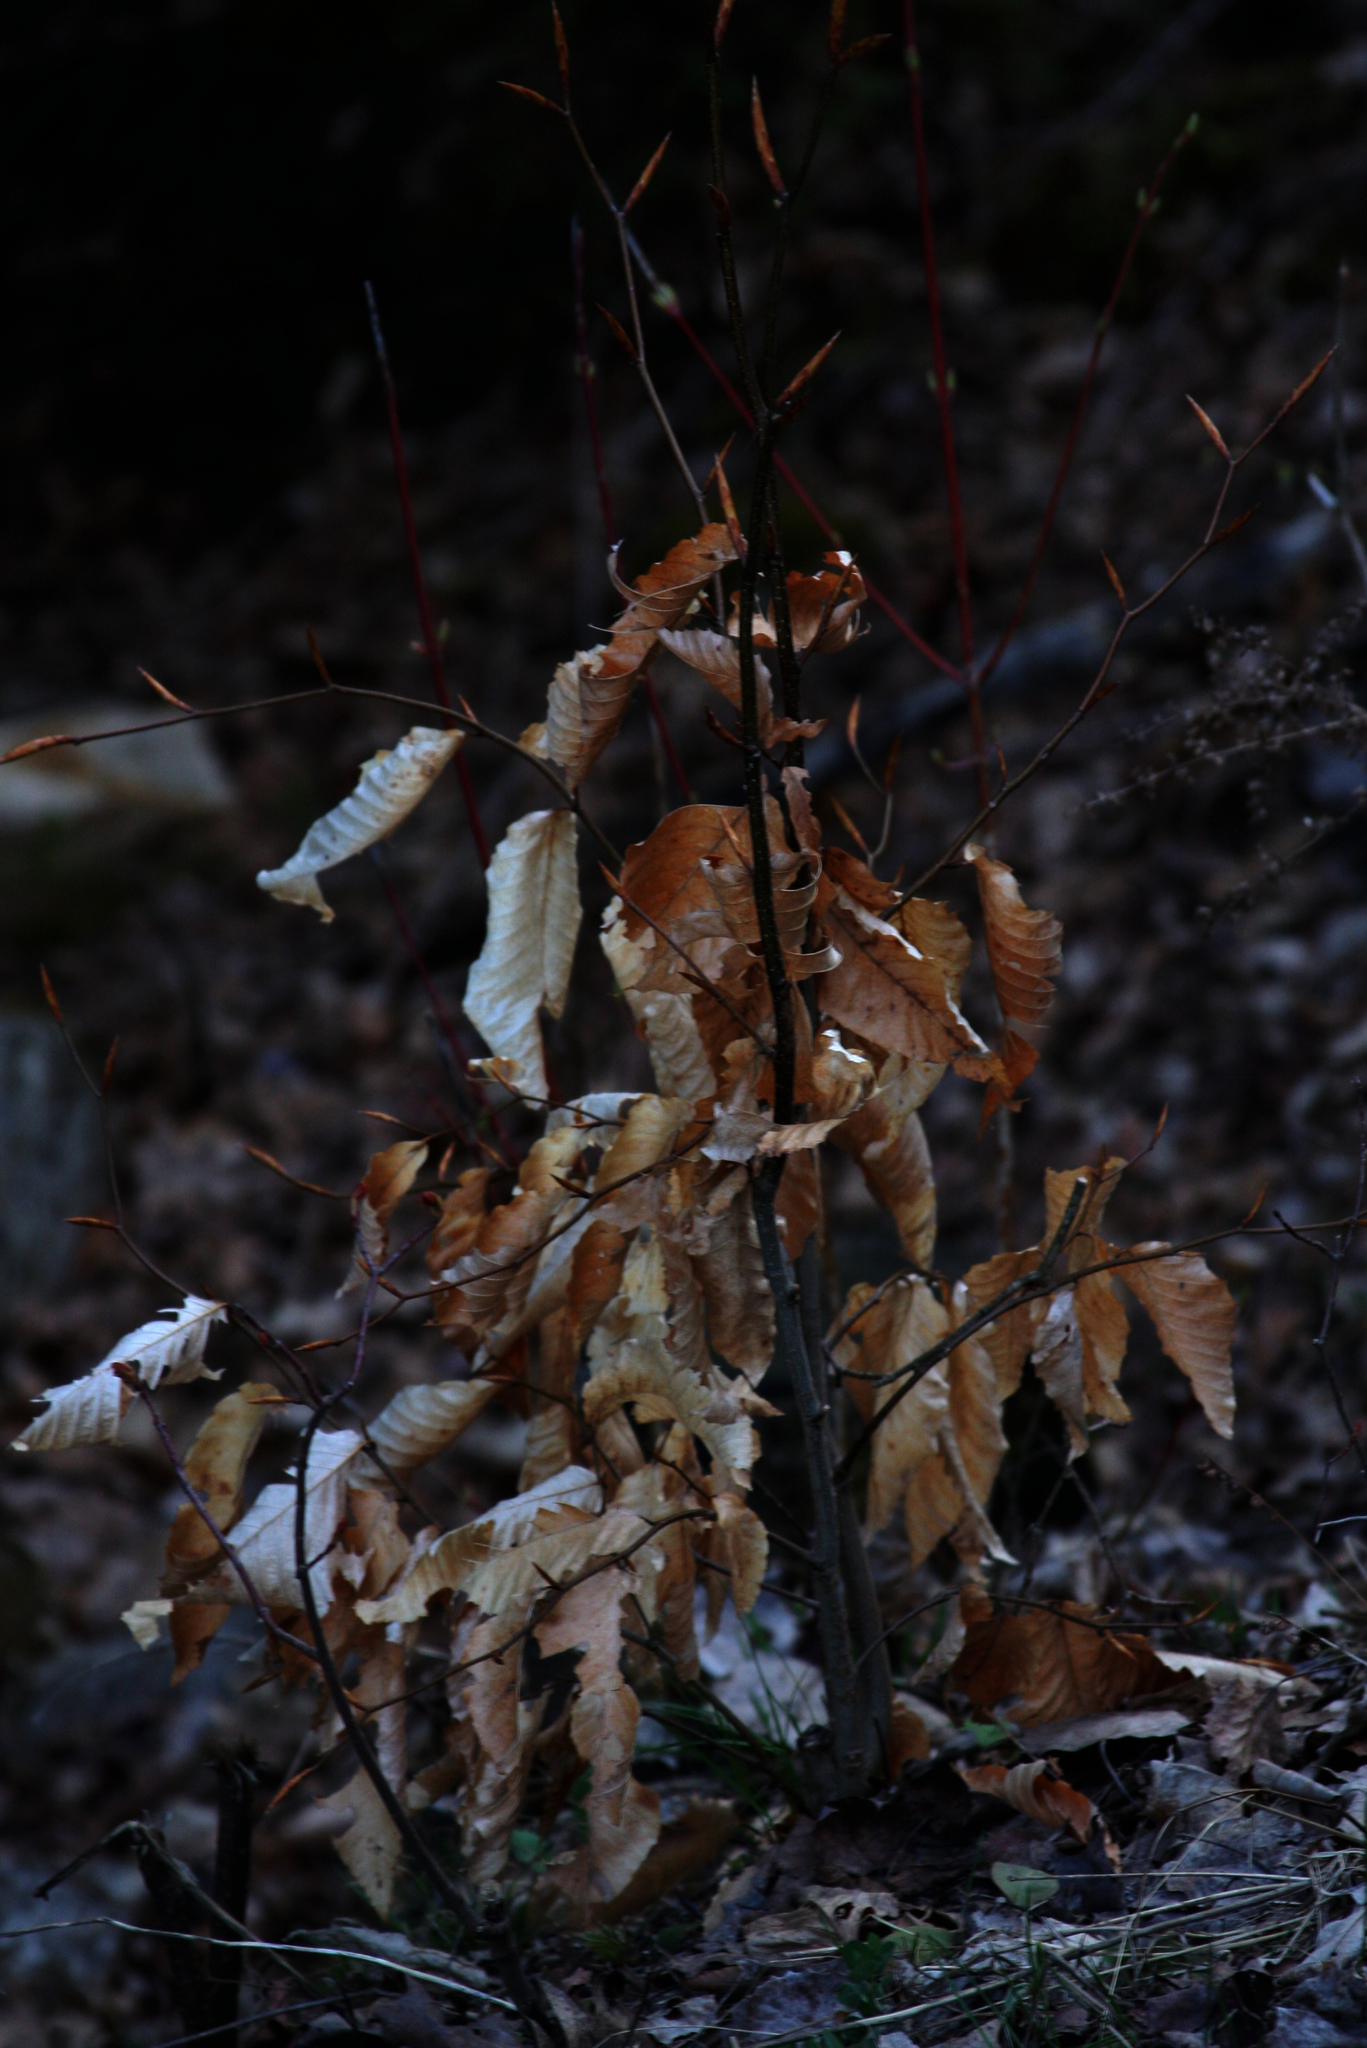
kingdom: Plantae
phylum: Tracheophyta
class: Magnoliopsida
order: Fagales
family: Fagaceae
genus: Fagus
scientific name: Fagus grandifolia
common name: American beech
